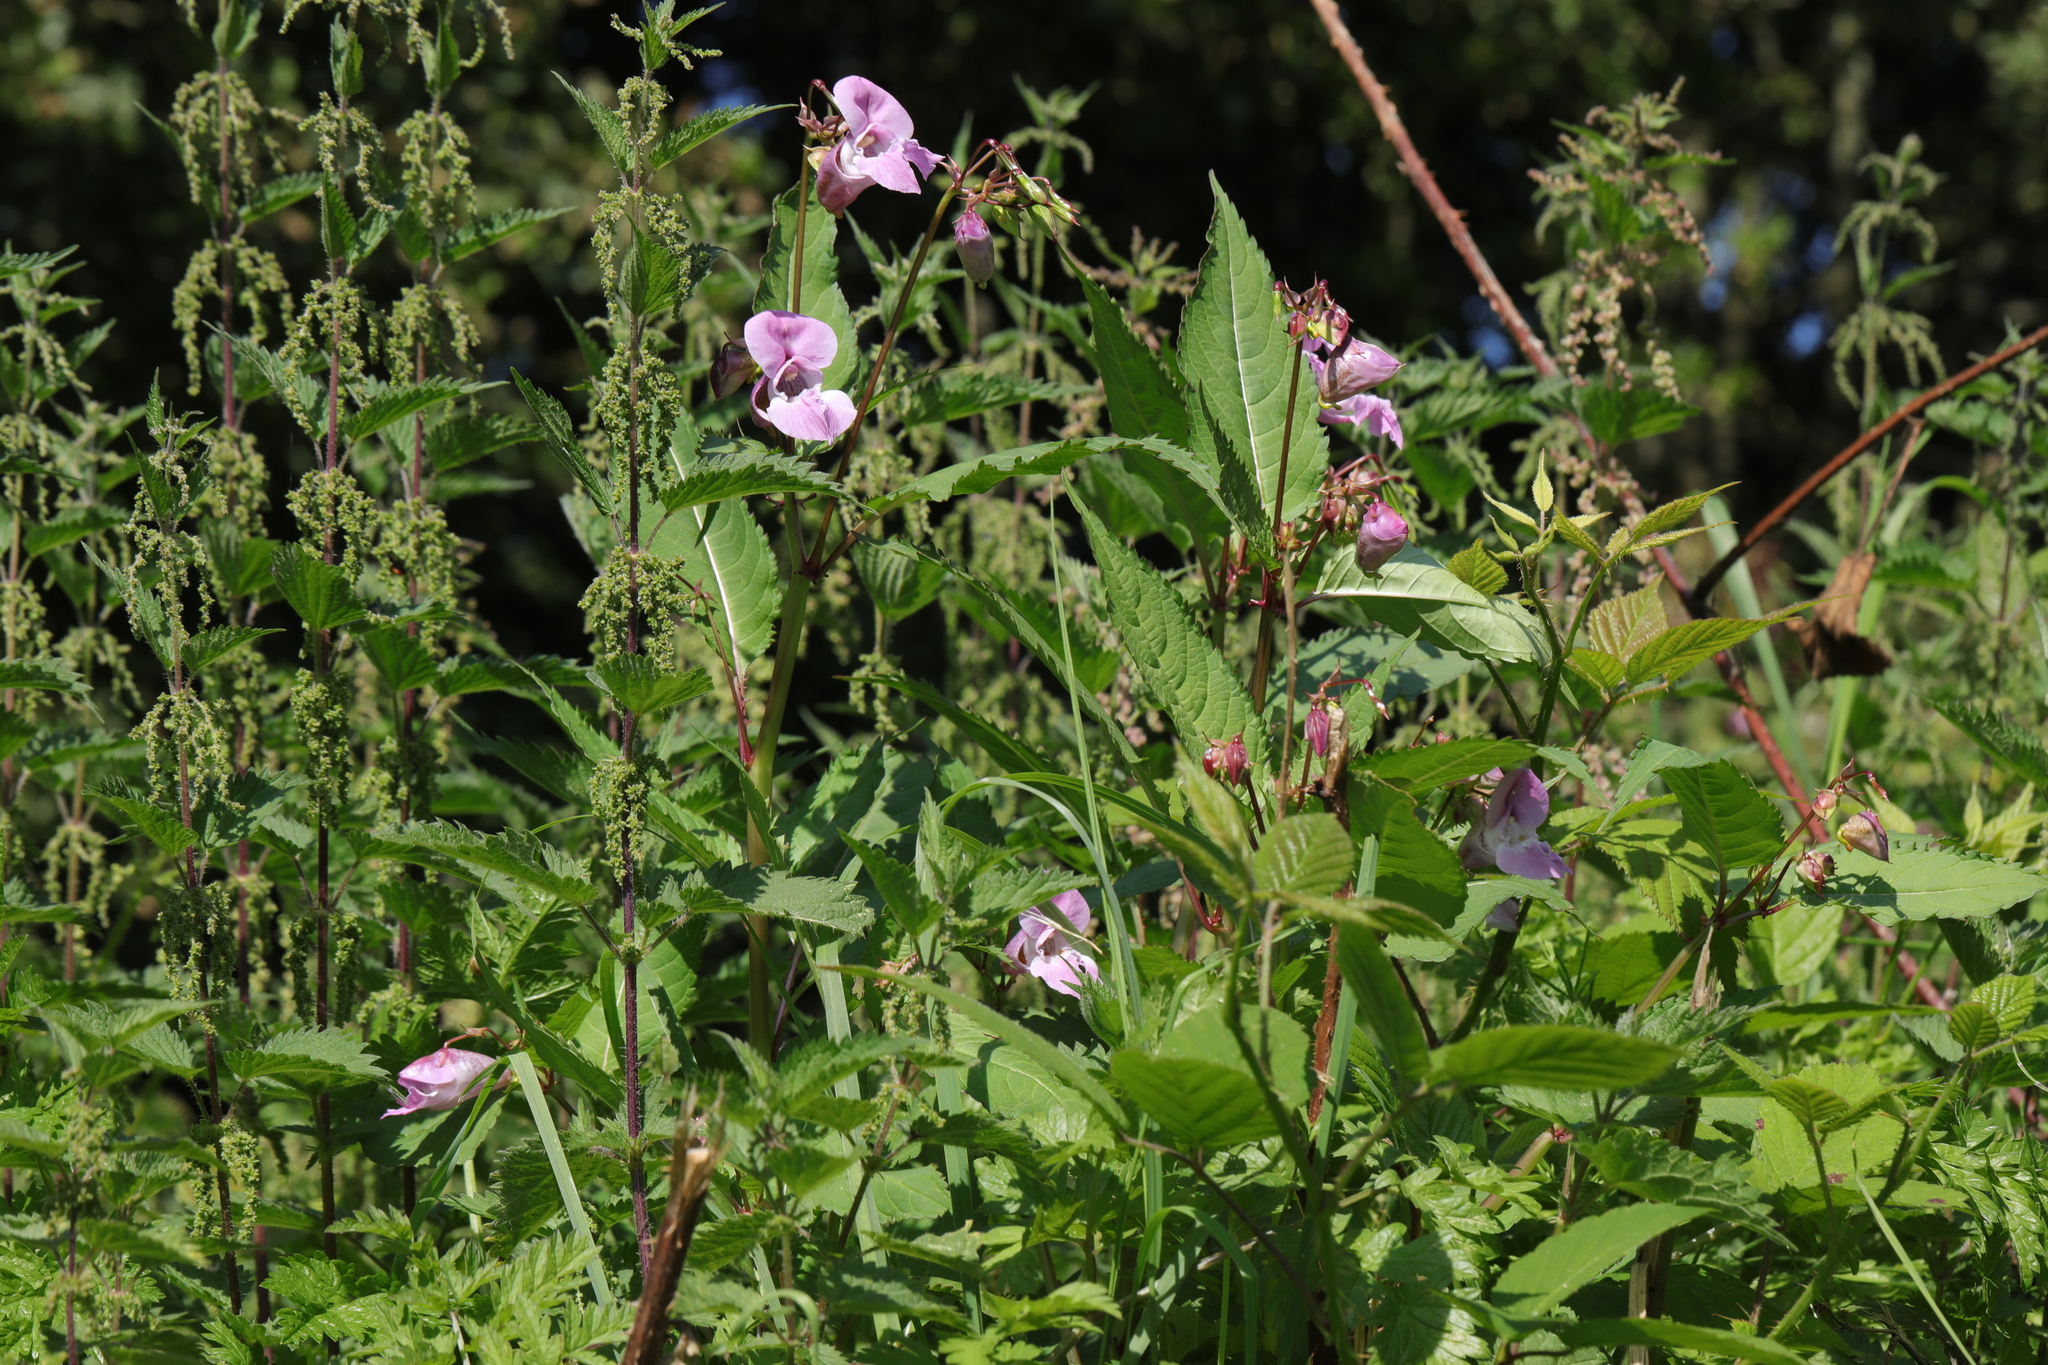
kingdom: Plantae
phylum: Tracheophyta
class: Magnoliopsida
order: Ericales
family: Balsaminaceae
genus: Impatiens
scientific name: Impatiens glandulifera
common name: Himalayan balsam
